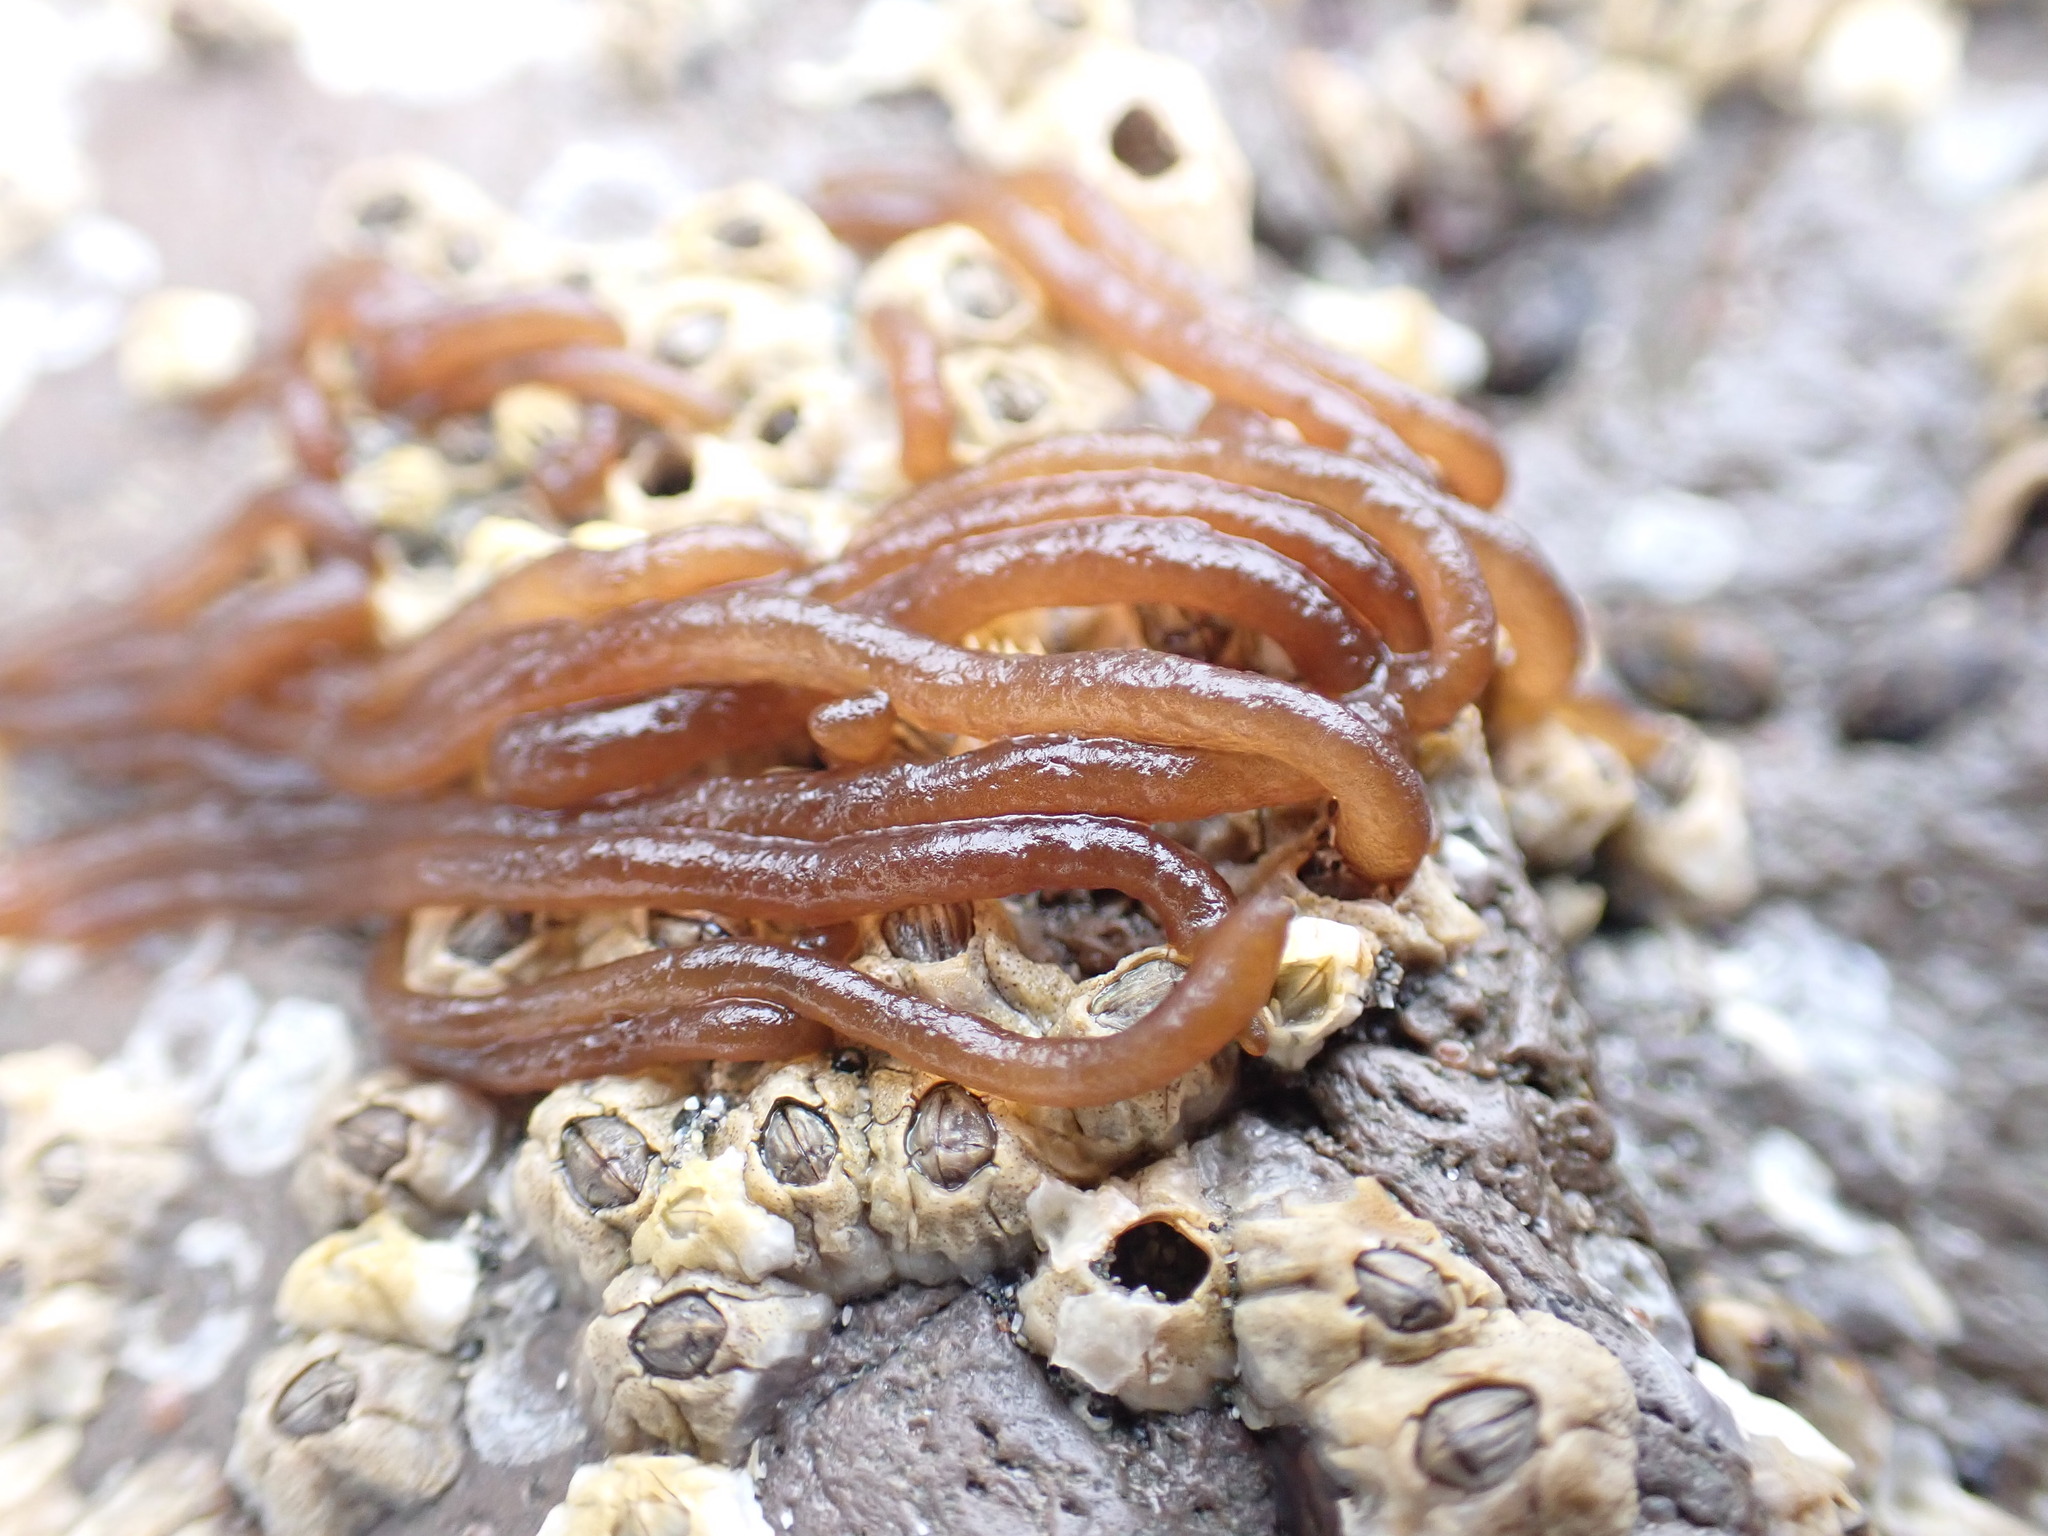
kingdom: Plantae
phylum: Rhodophyta
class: Florideophyceae
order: Nemaliales
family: Nemaliaceae
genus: Nemalion
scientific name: Nemalion elminthoides
